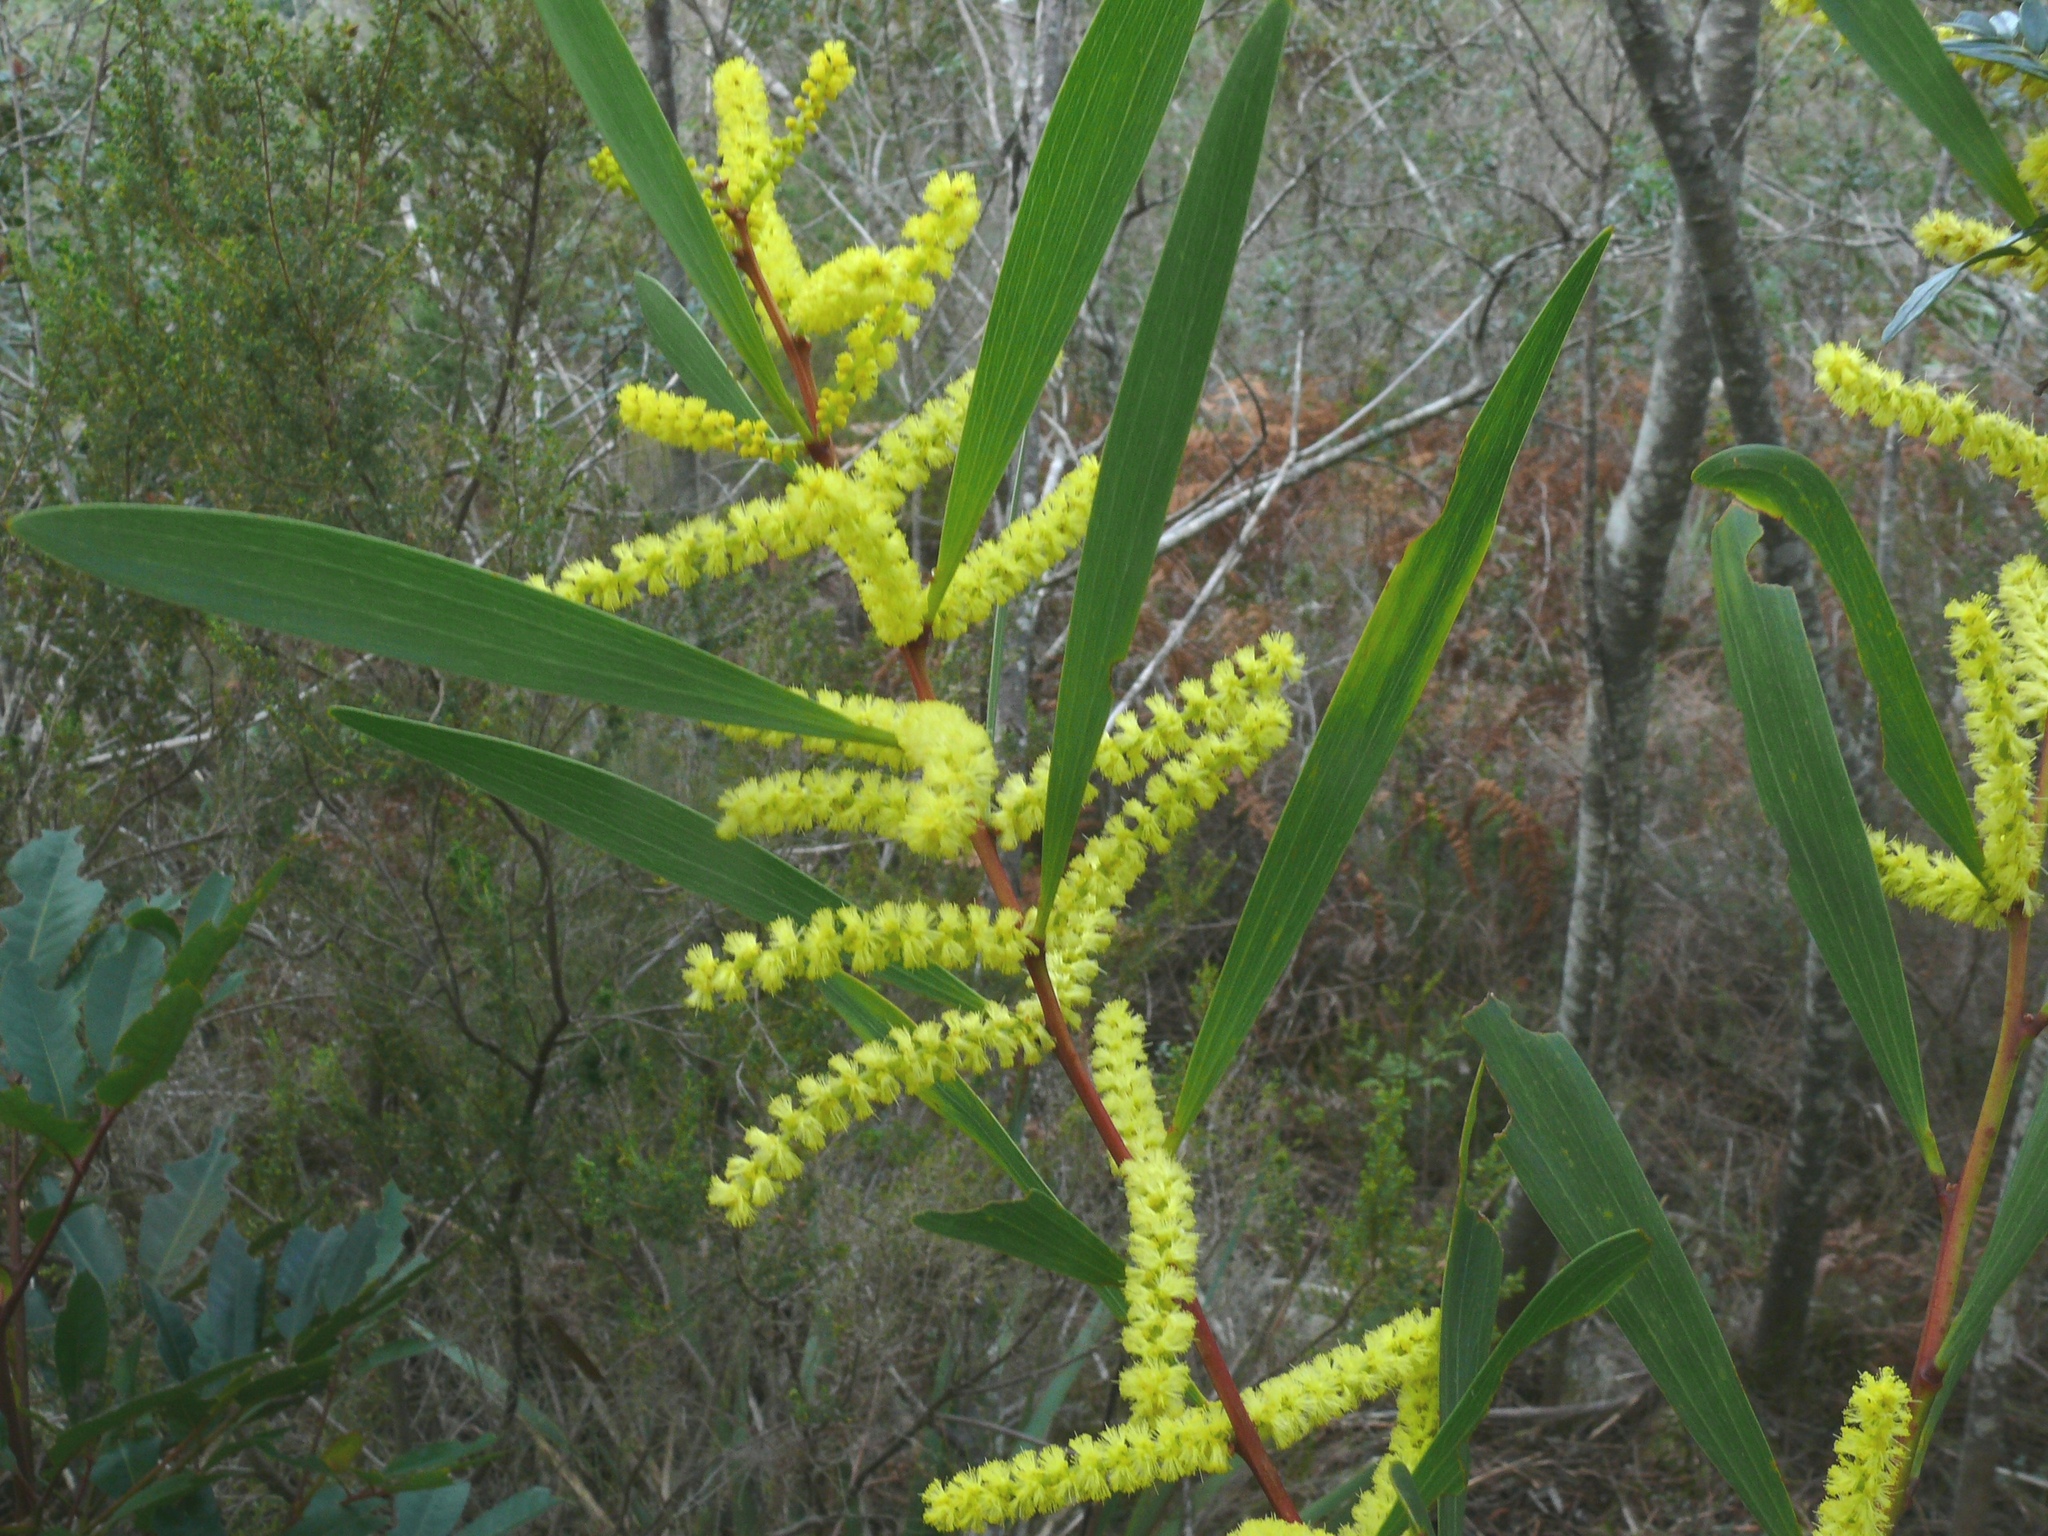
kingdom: Plantae
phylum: Tracheophyta
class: Magnoliopsida
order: Fabales
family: Fabaceae
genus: Acacia
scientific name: Acacia longifolia
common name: Sydney golden wattle
